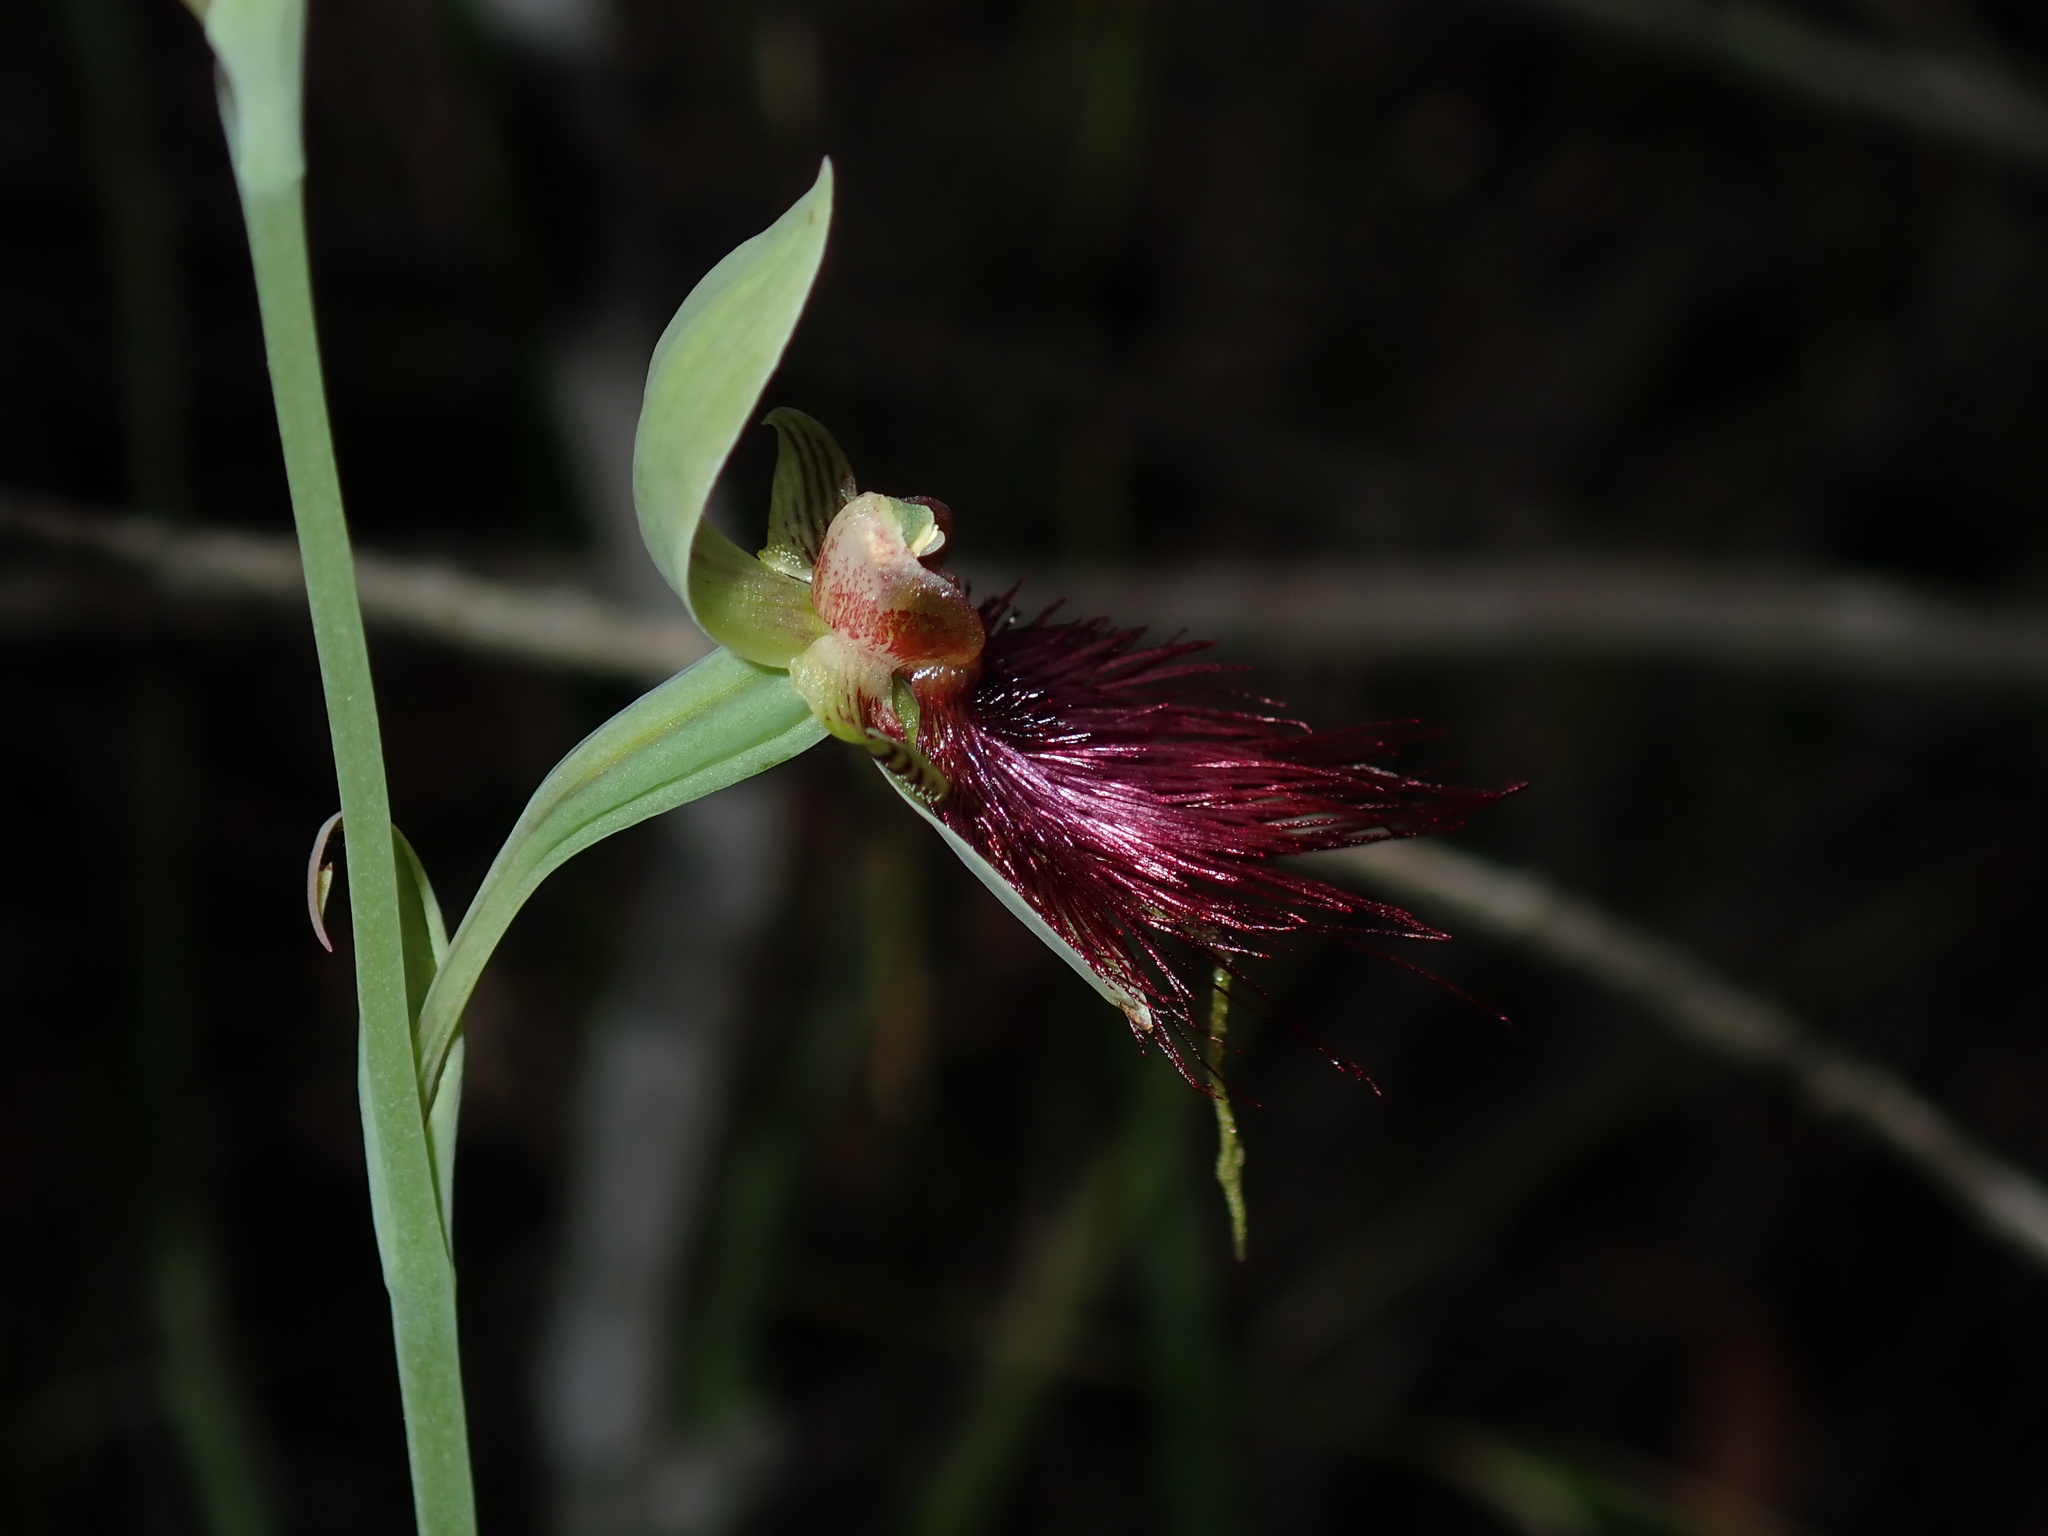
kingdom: Plantae
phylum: Tracheophyta
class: Liliopsida
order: Asparagales
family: Orchidaceae
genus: Calochilus
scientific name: Calochilus paludosus
